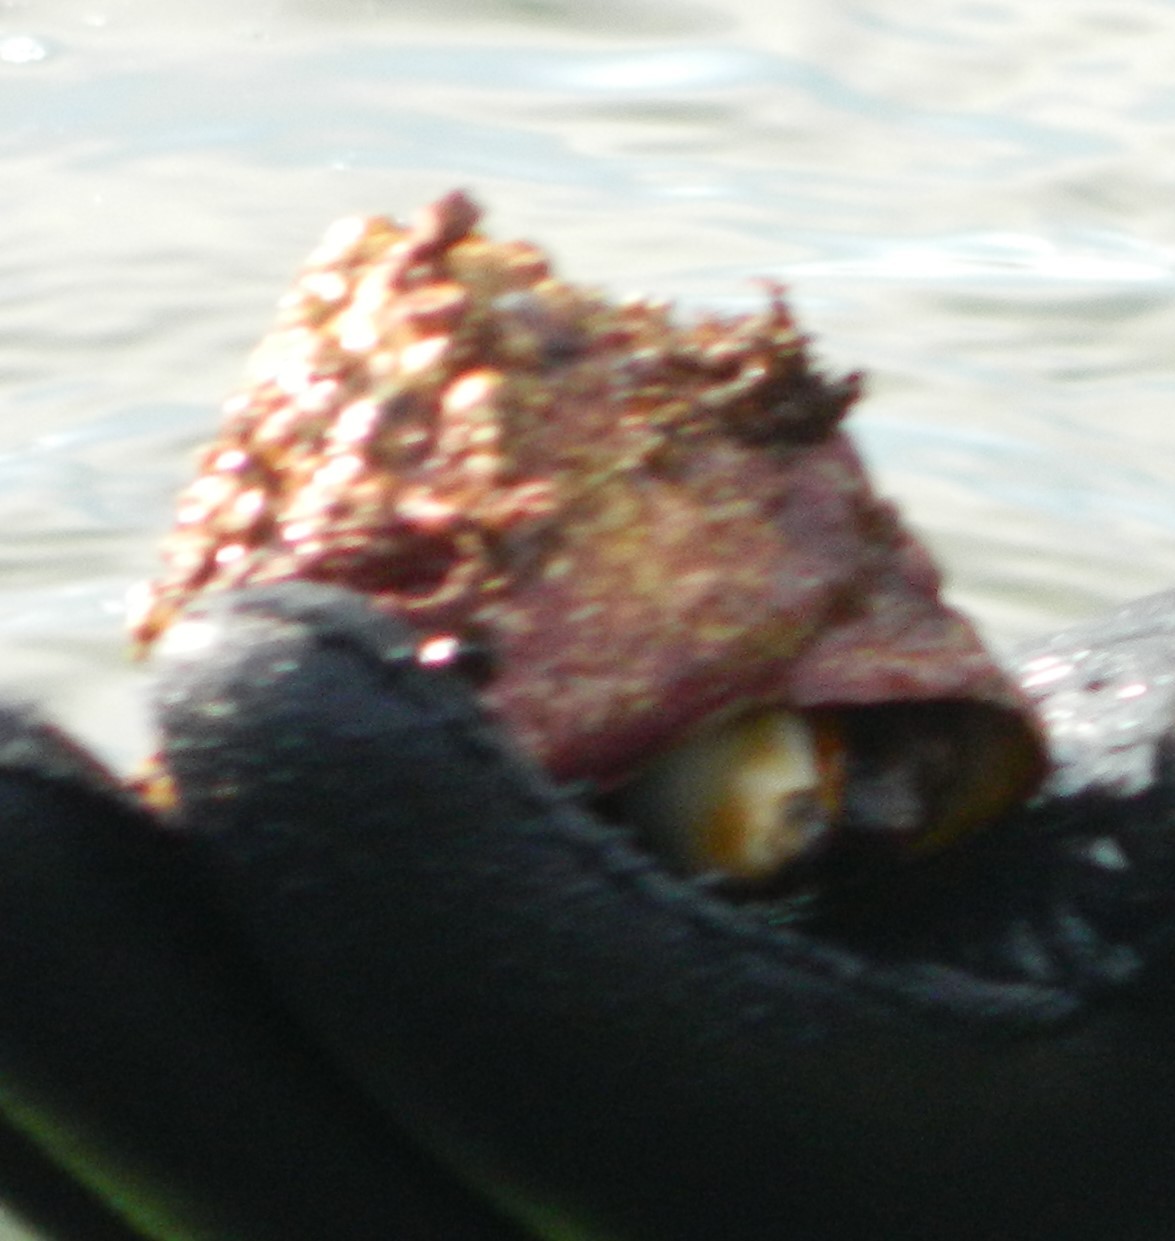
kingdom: Animalia
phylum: Mollusca
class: Gastropoda
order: Trochida
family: Turbinidae
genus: Pomaulax
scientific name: Pomaulax gibberosus
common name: Red turban
